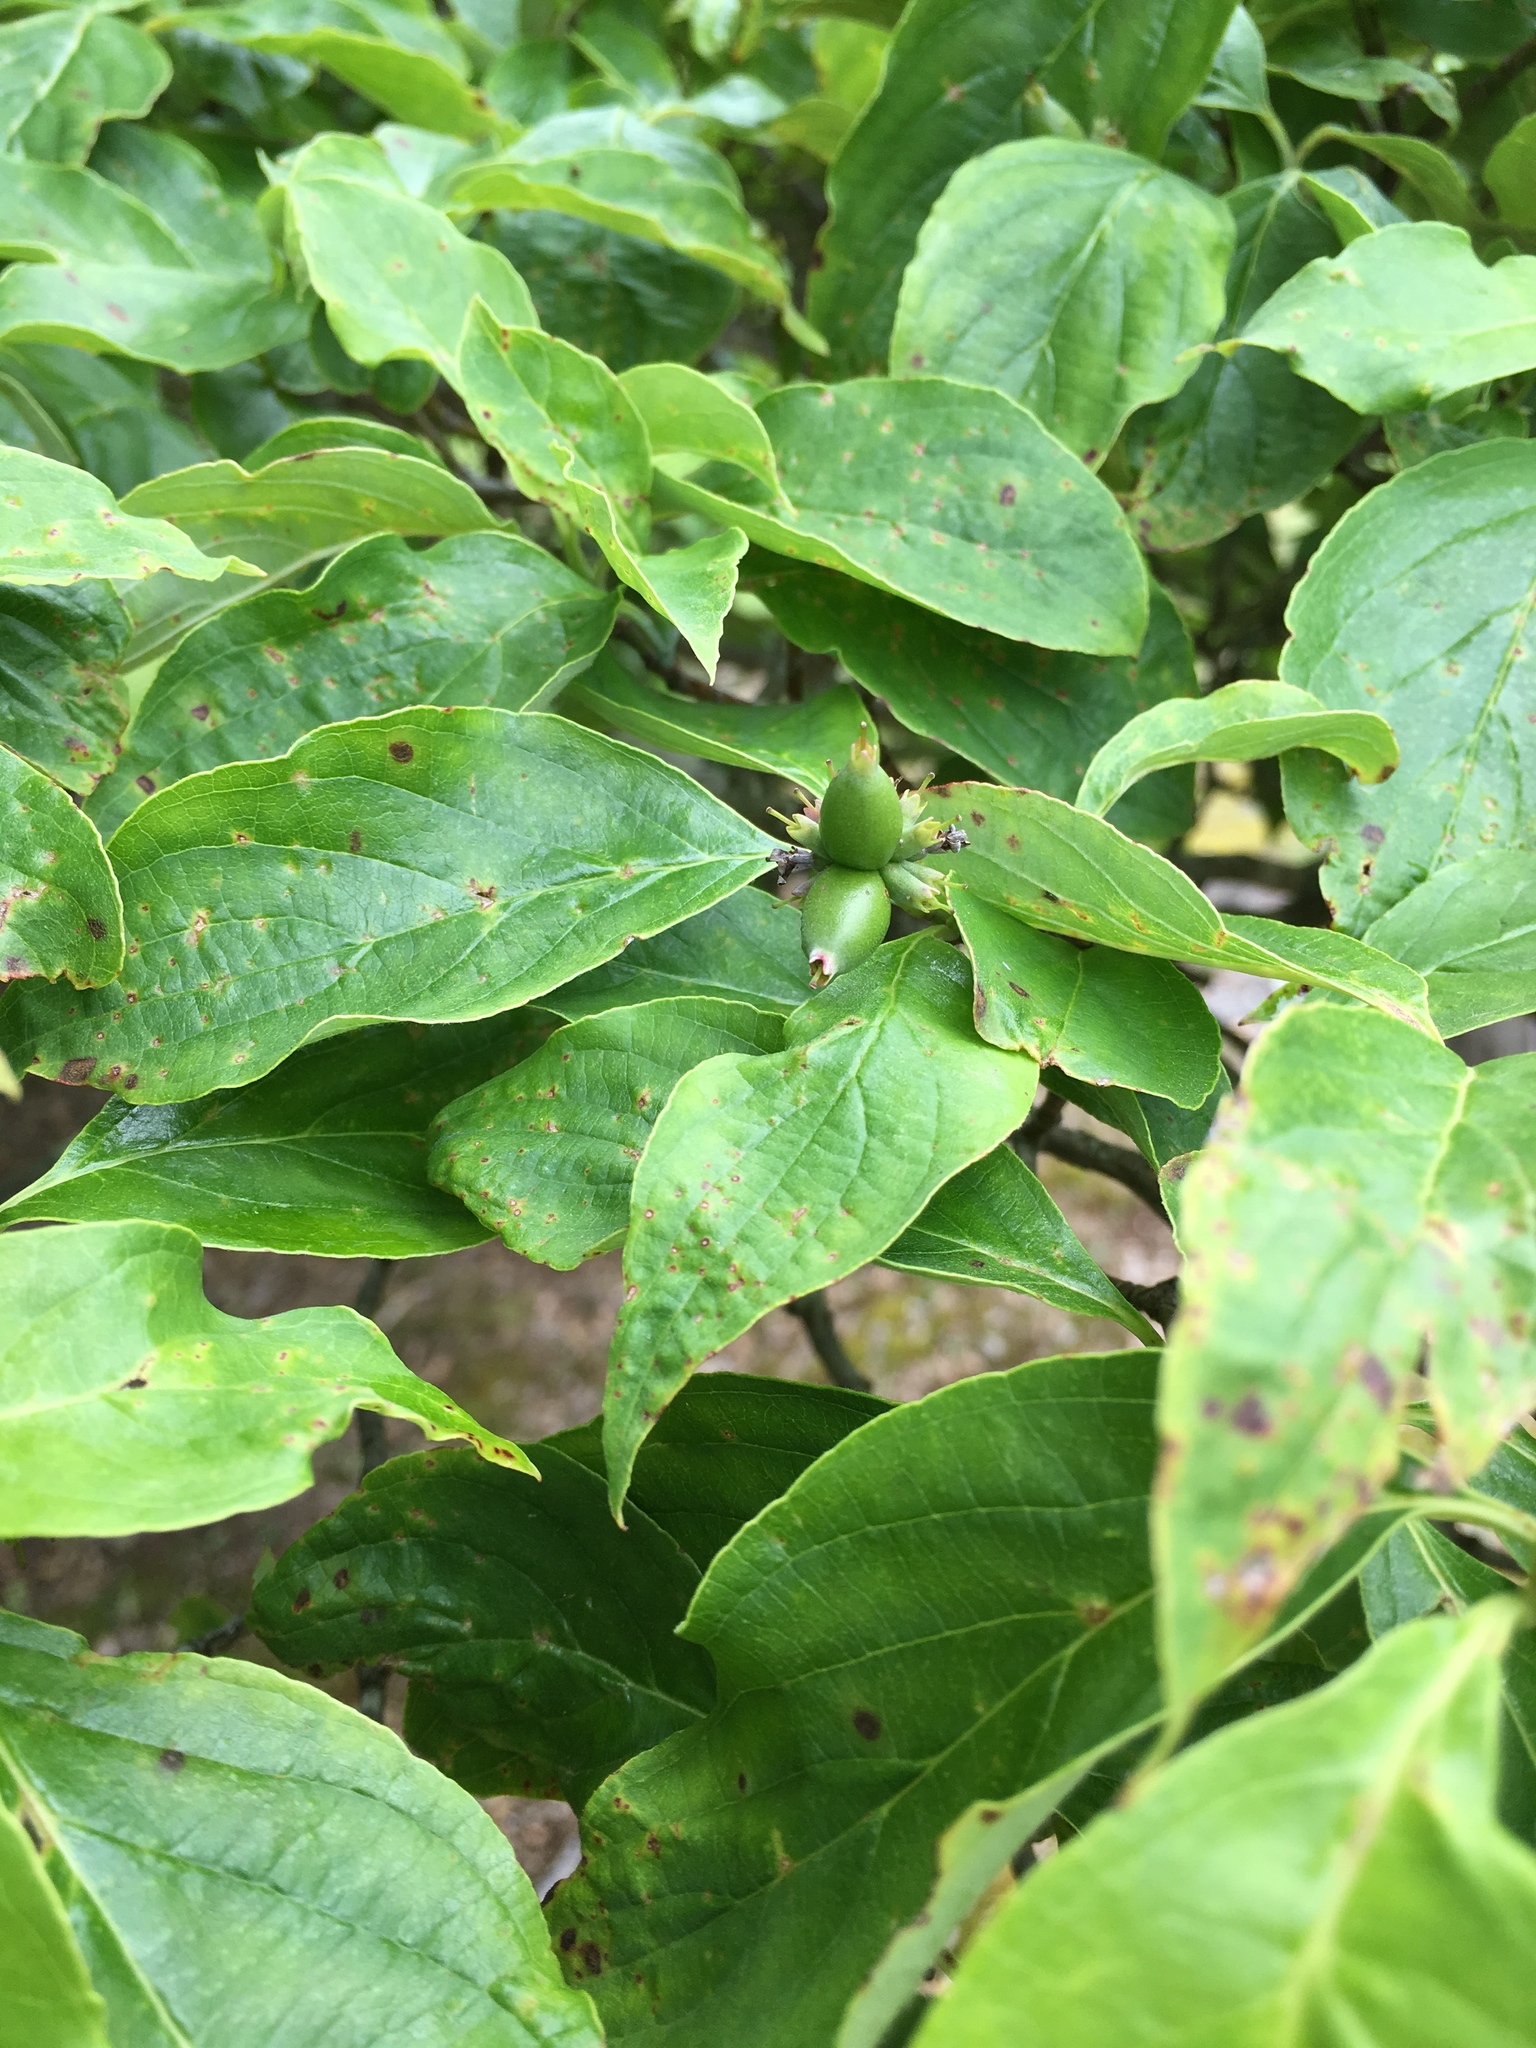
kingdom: Plantae
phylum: Tracheophyta
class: Magnoliopsida
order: Cornales
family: Cornaceae
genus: Cornus
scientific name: Cornus florida
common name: Flowering dogwood
